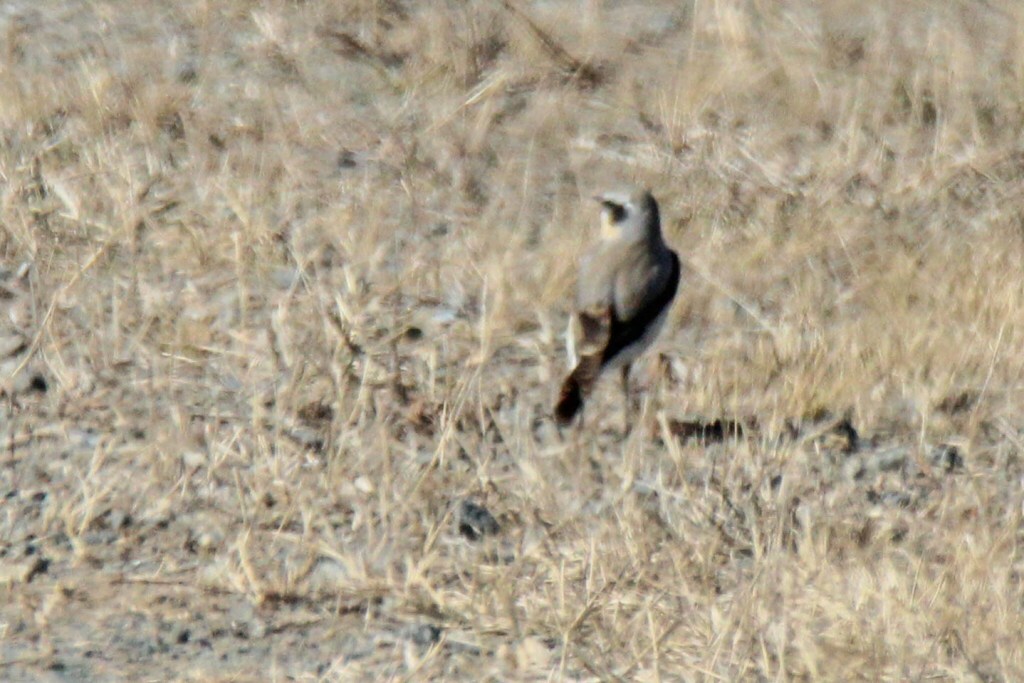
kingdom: Animalia
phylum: Chordata
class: Aves
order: Passeriformes
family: Muscicapidae
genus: Oenanthe
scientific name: Oenanthe oenanthe
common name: Northern wheatear
